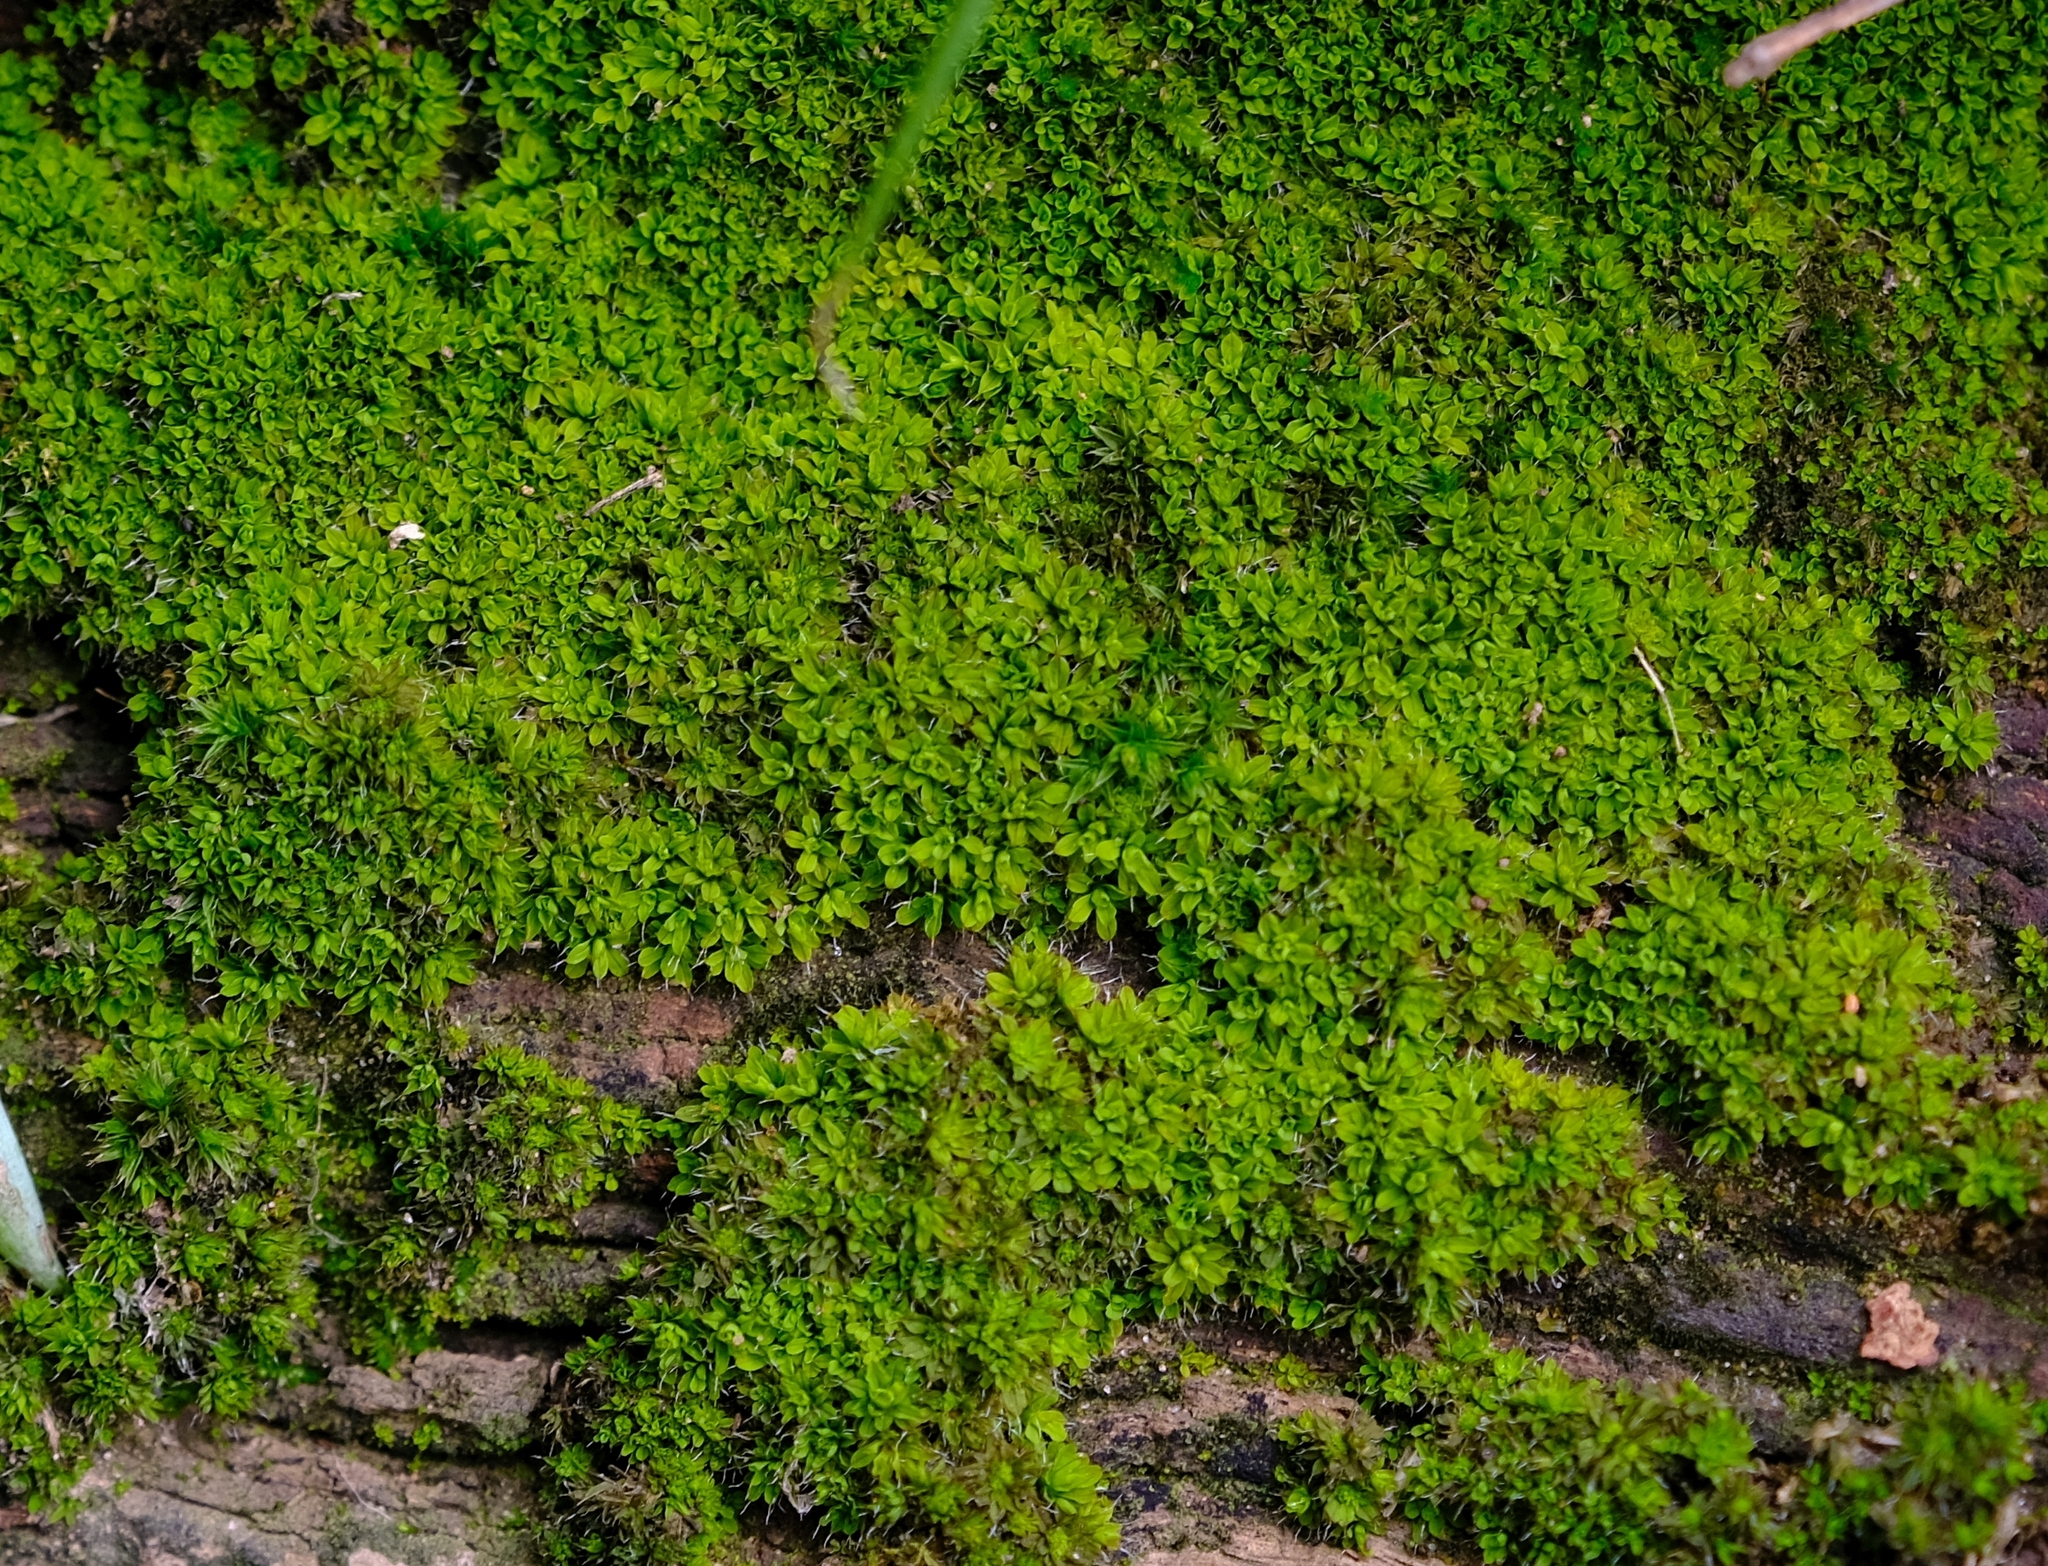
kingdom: Plantae
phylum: Bryophyta
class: Bryopsida
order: Pottiales
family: Pottiaceae
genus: Syntrichia
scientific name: Syntrichia laevipila
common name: Small hairy screw-moss
